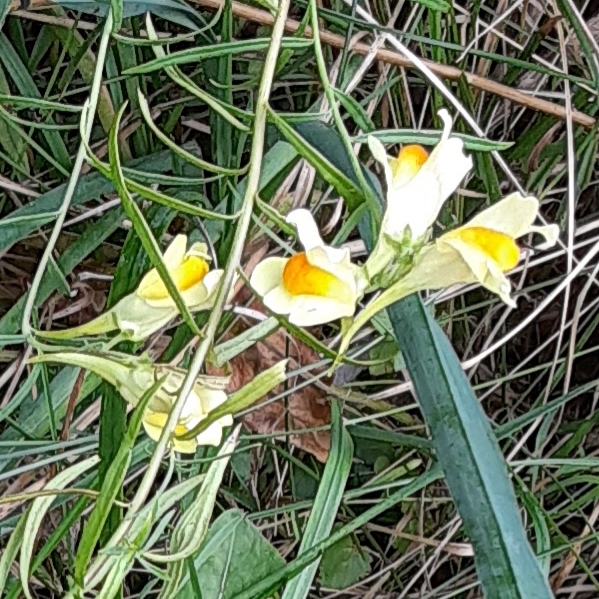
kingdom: Plantae
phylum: Tracheophyta
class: Magnoliopsida
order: Lamiales
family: Plantaginaceae
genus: Linaria
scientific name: Linaria vulgaris
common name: Butter and eggs
